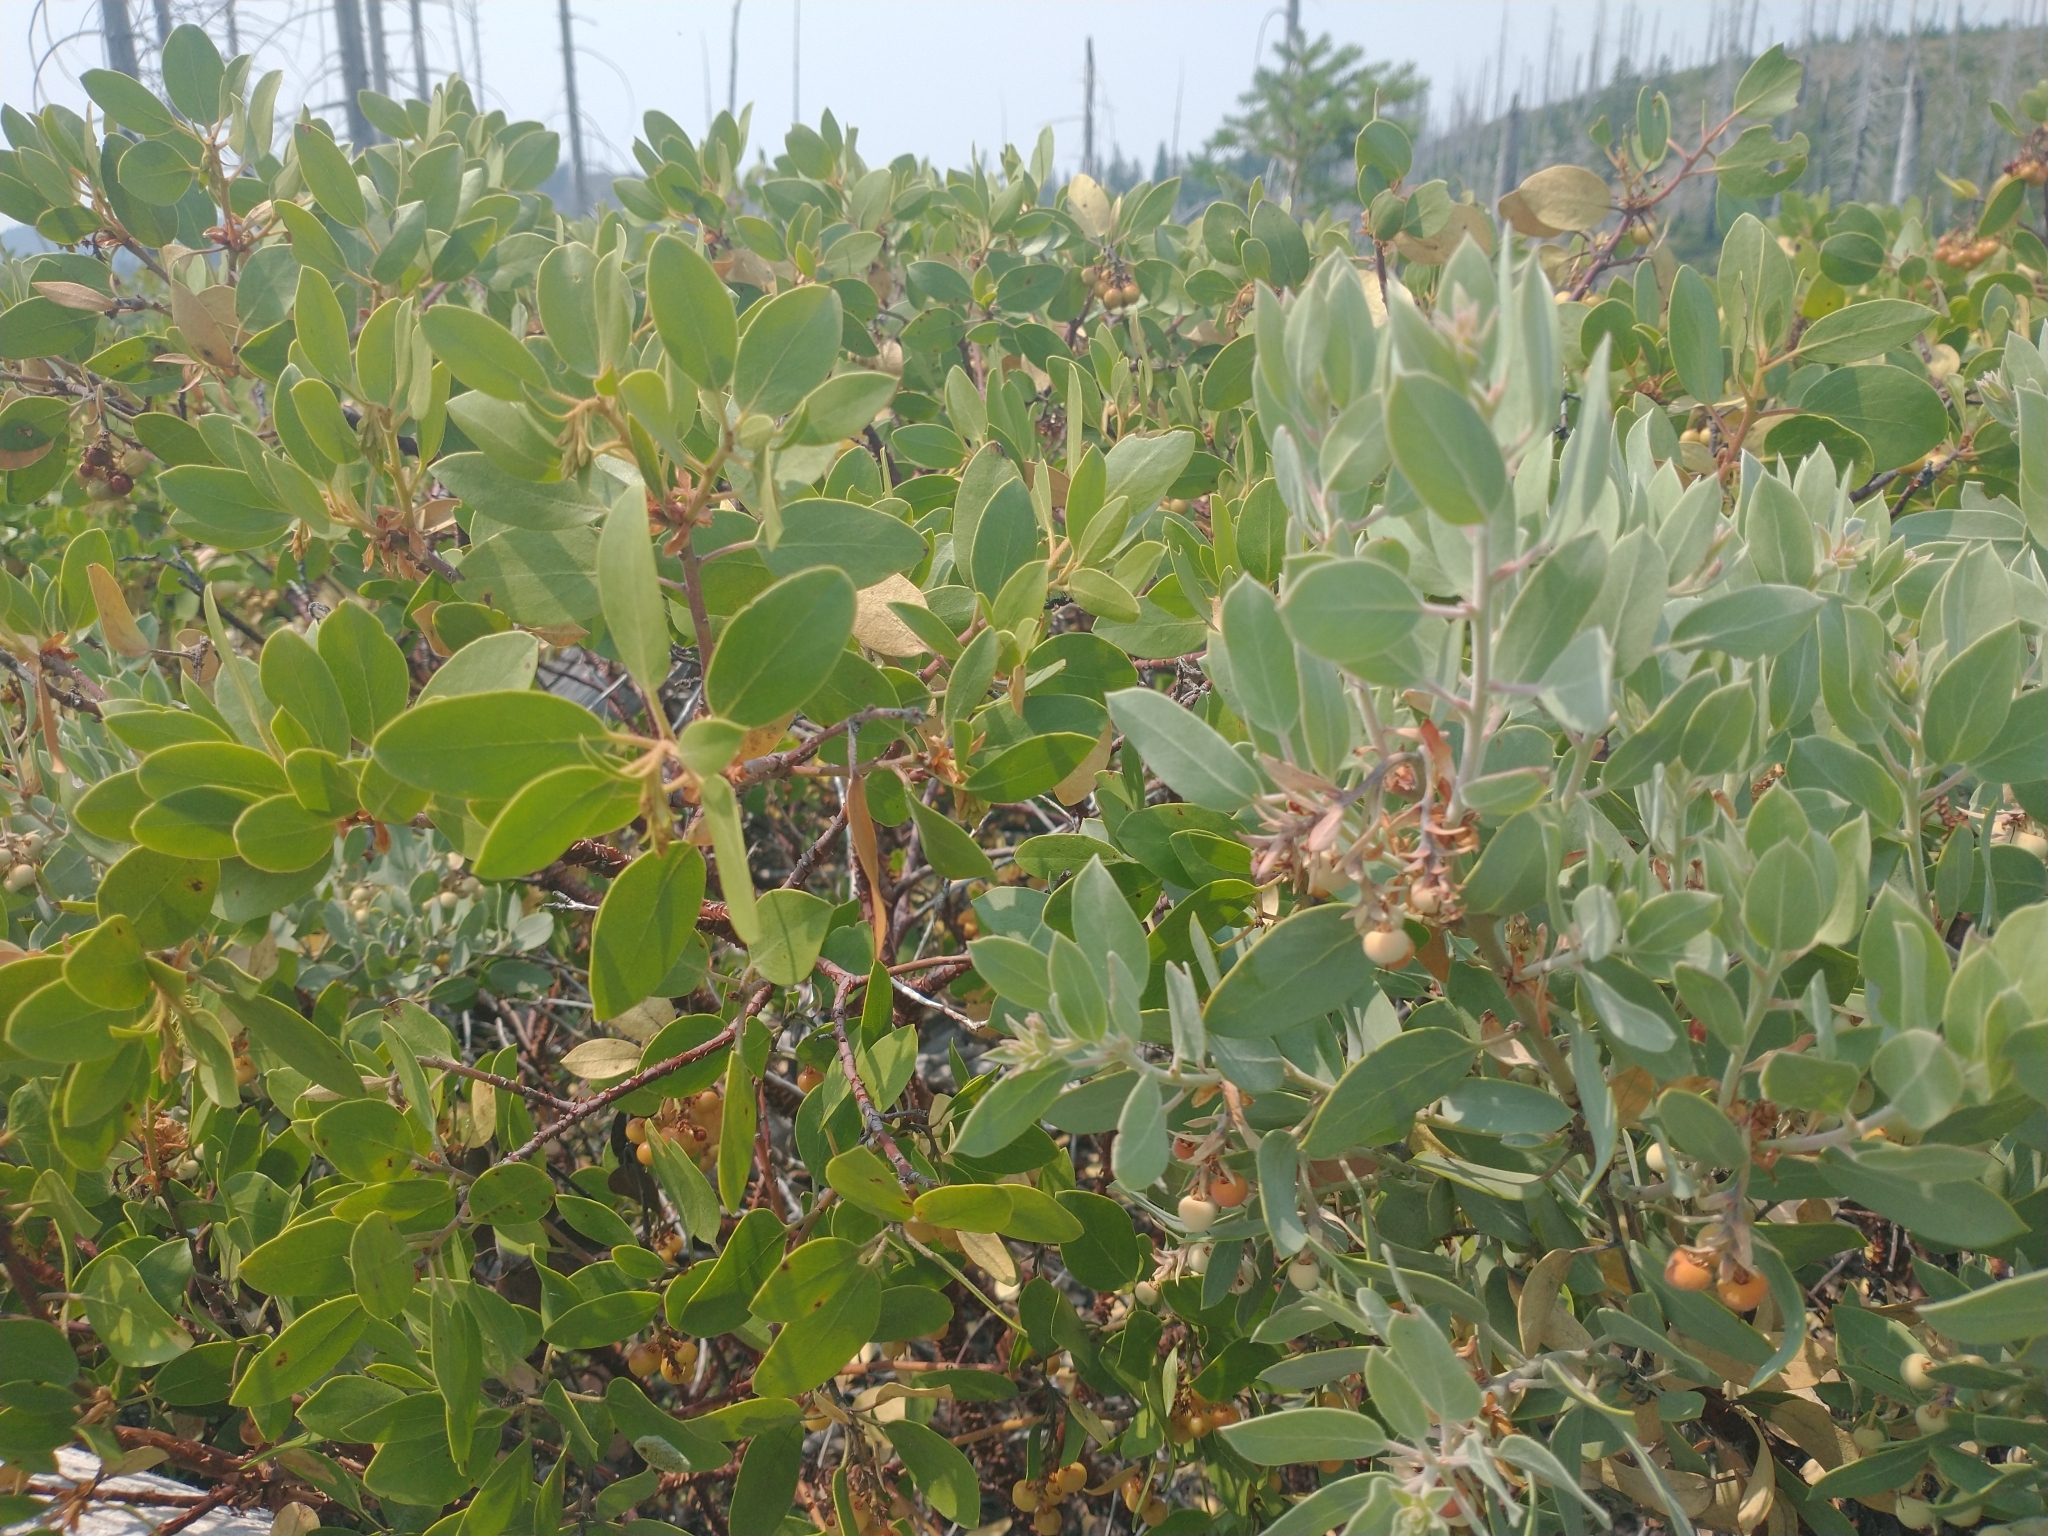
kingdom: Plantae
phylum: Tracheophyta
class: Magnoliopsida
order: Ericales
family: Ericaceae
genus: Arctostaphylos
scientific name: Arctostaphylos canescens
